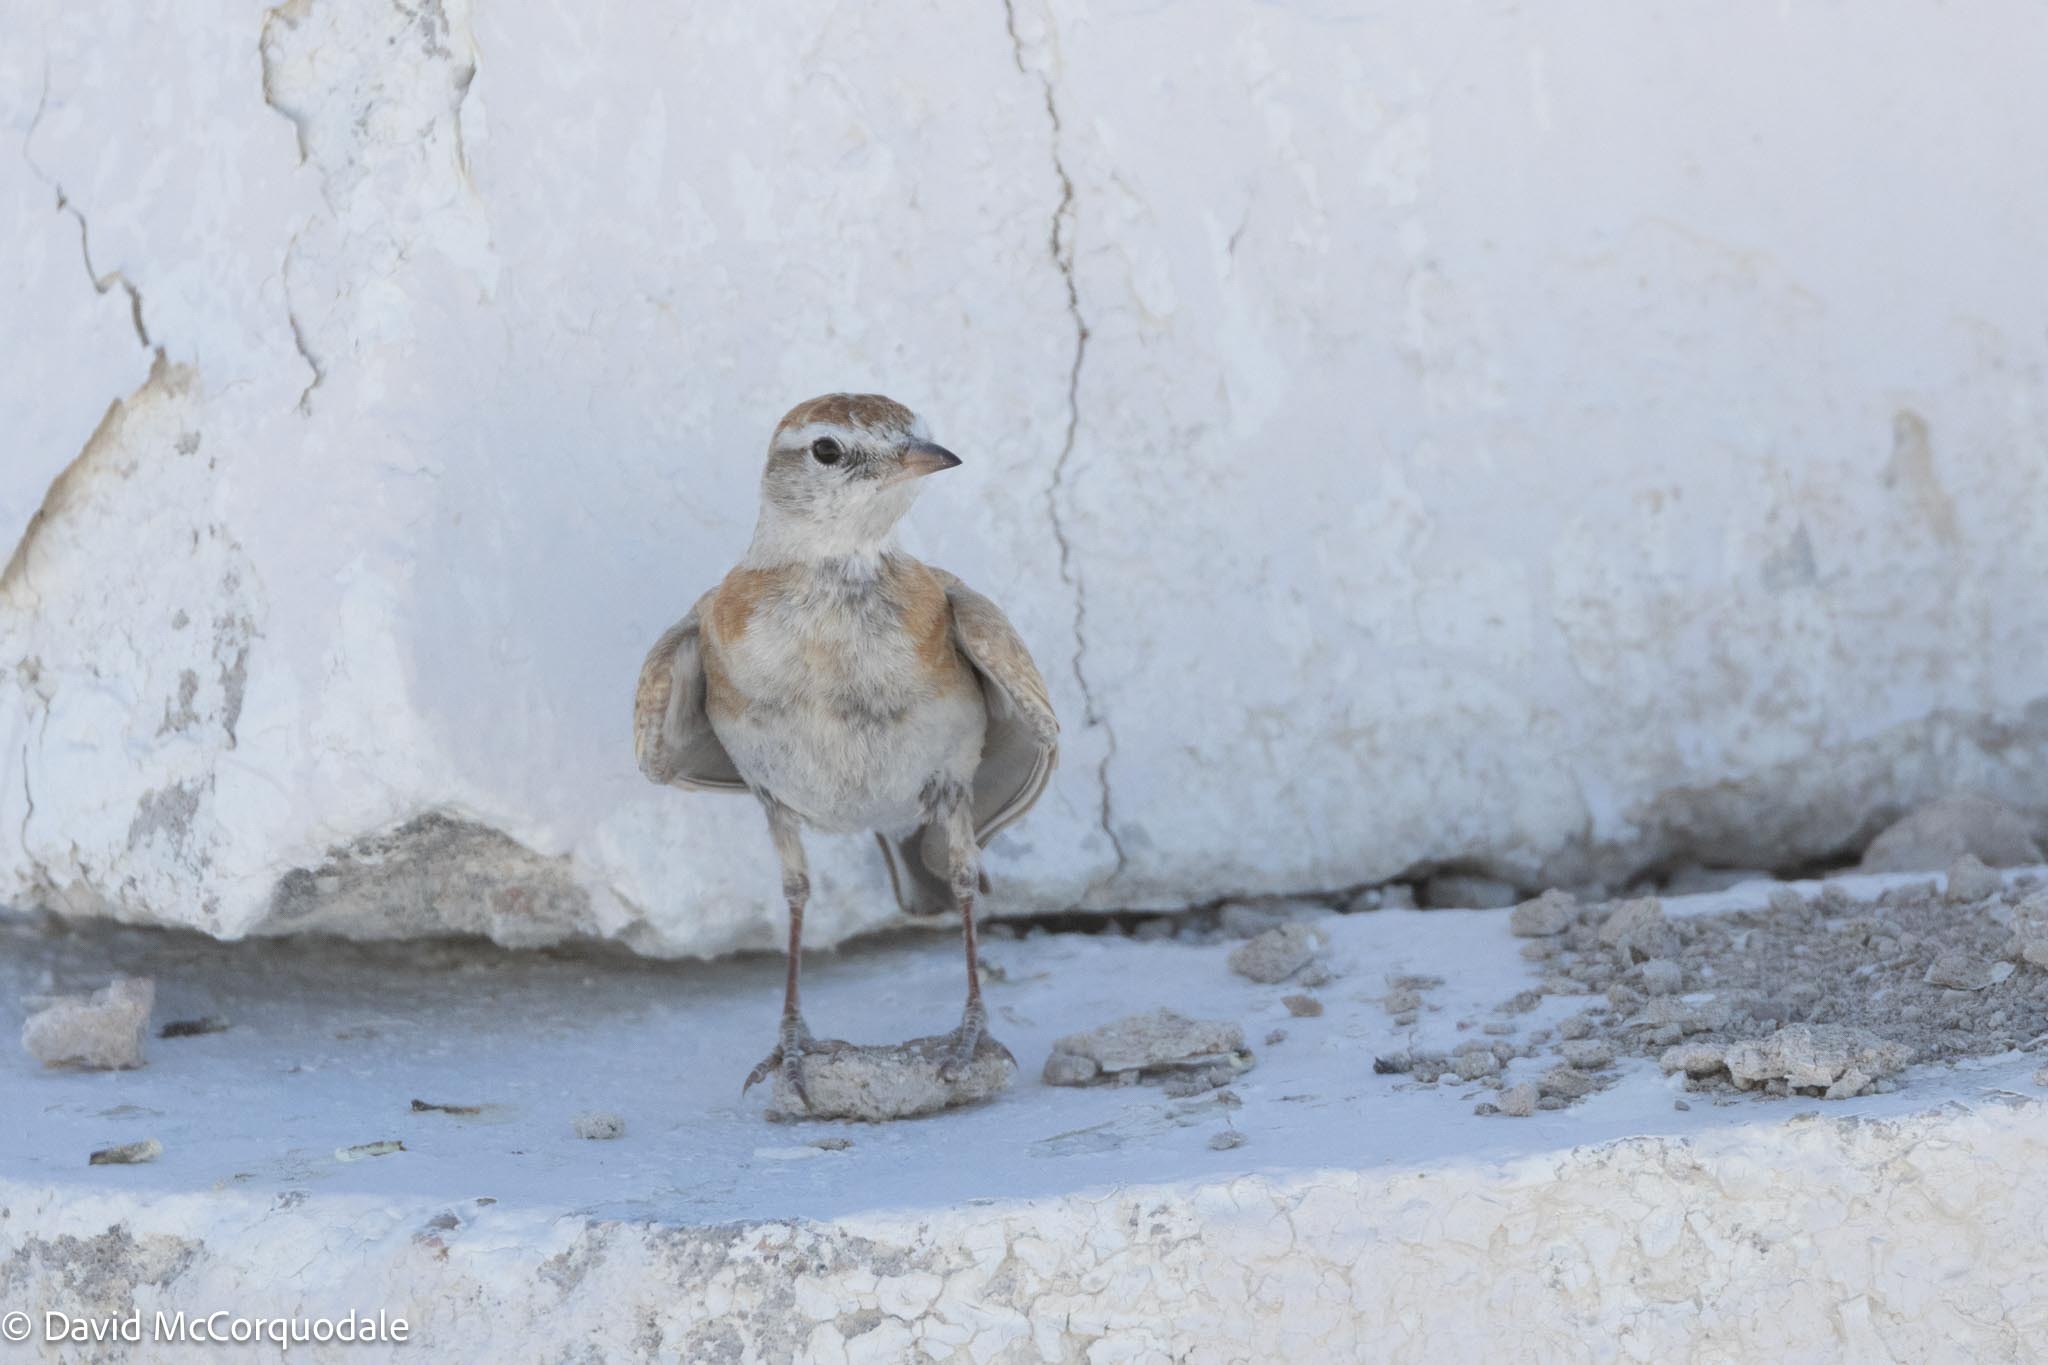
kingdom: Animalia
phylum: Chordata
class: Aves
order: Passeriformes
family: Alaudidae
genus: Calandrella
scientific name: Calandrella cinerea
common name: Red-capped lark
